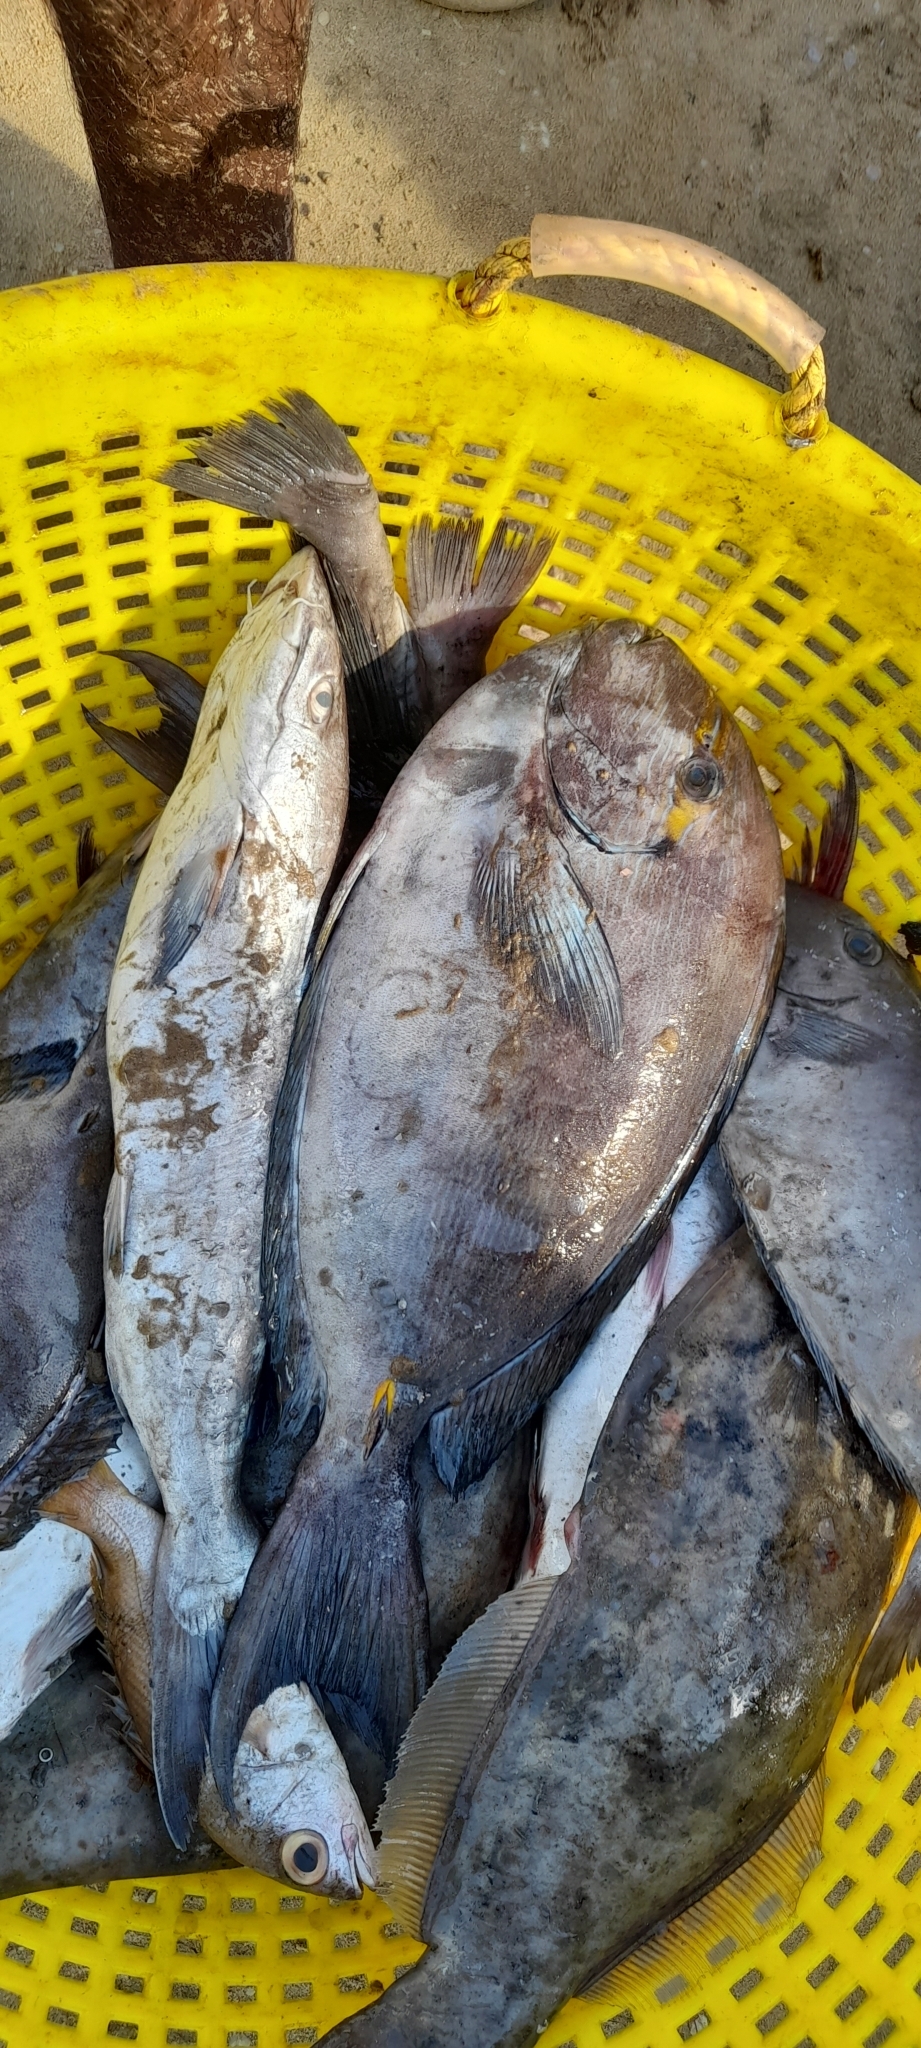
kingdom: Animalia
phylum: Chordata
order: Perciformes
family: Acanthuridae
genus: Acanthurus
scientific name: Acanthurus mata
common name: Bleeker's surgeonfish
